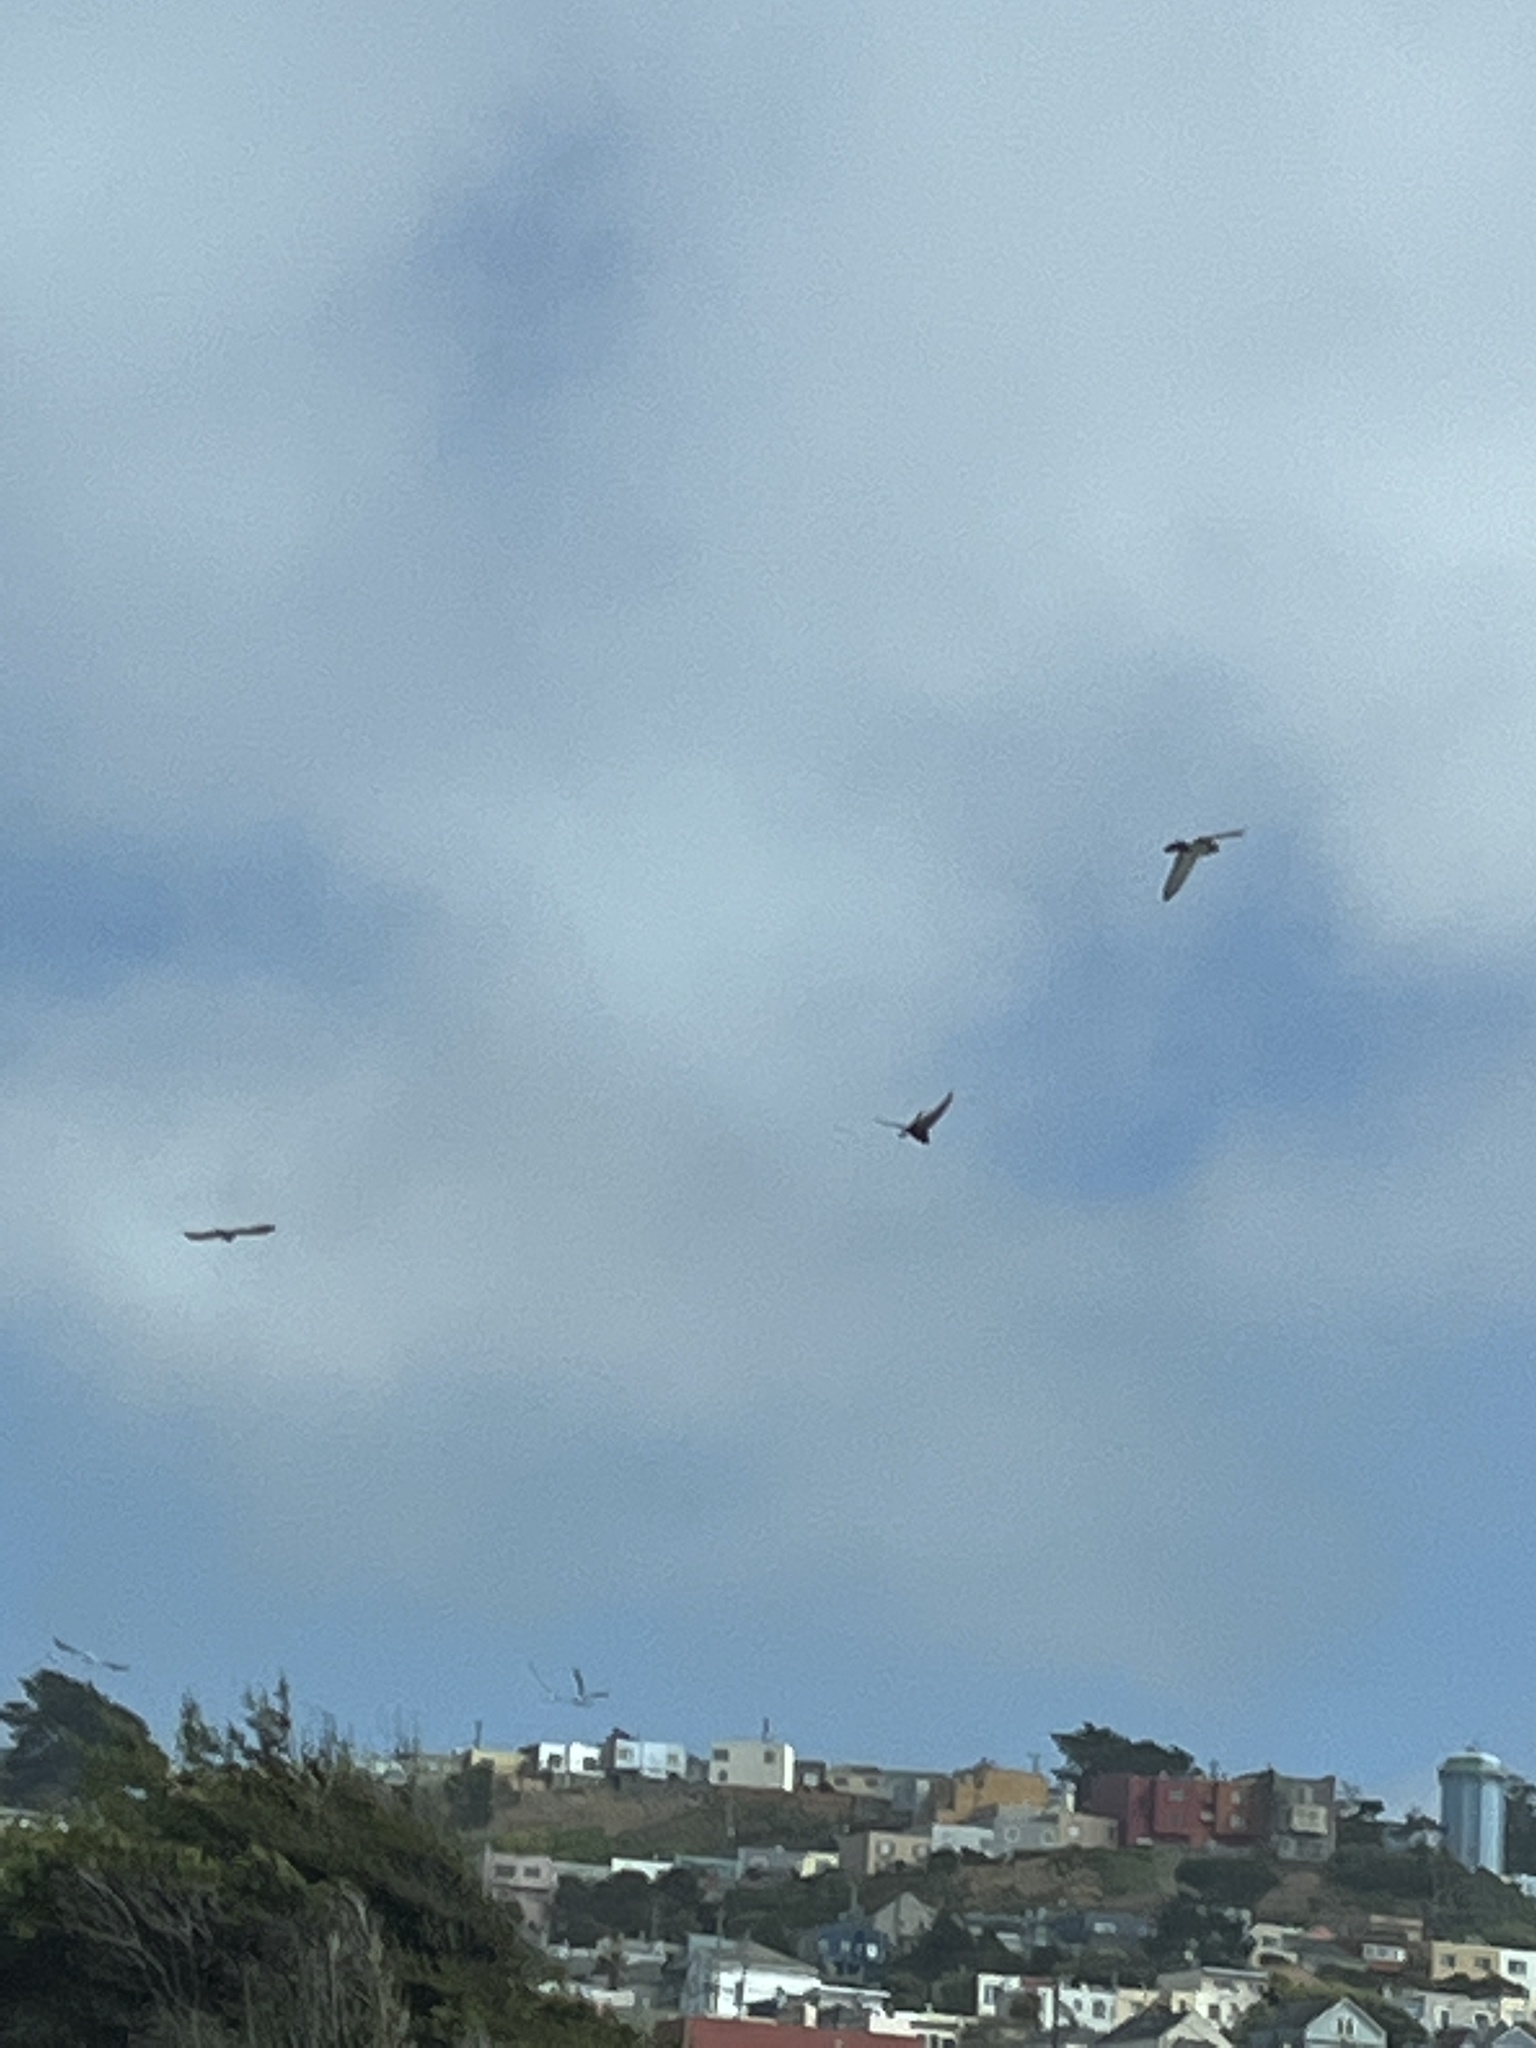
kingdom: Animalia
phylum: Chordata
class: Aves
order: Columbiformes
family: Columbidae
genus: Columba
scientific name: Columba livia
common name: Rock pigeon
